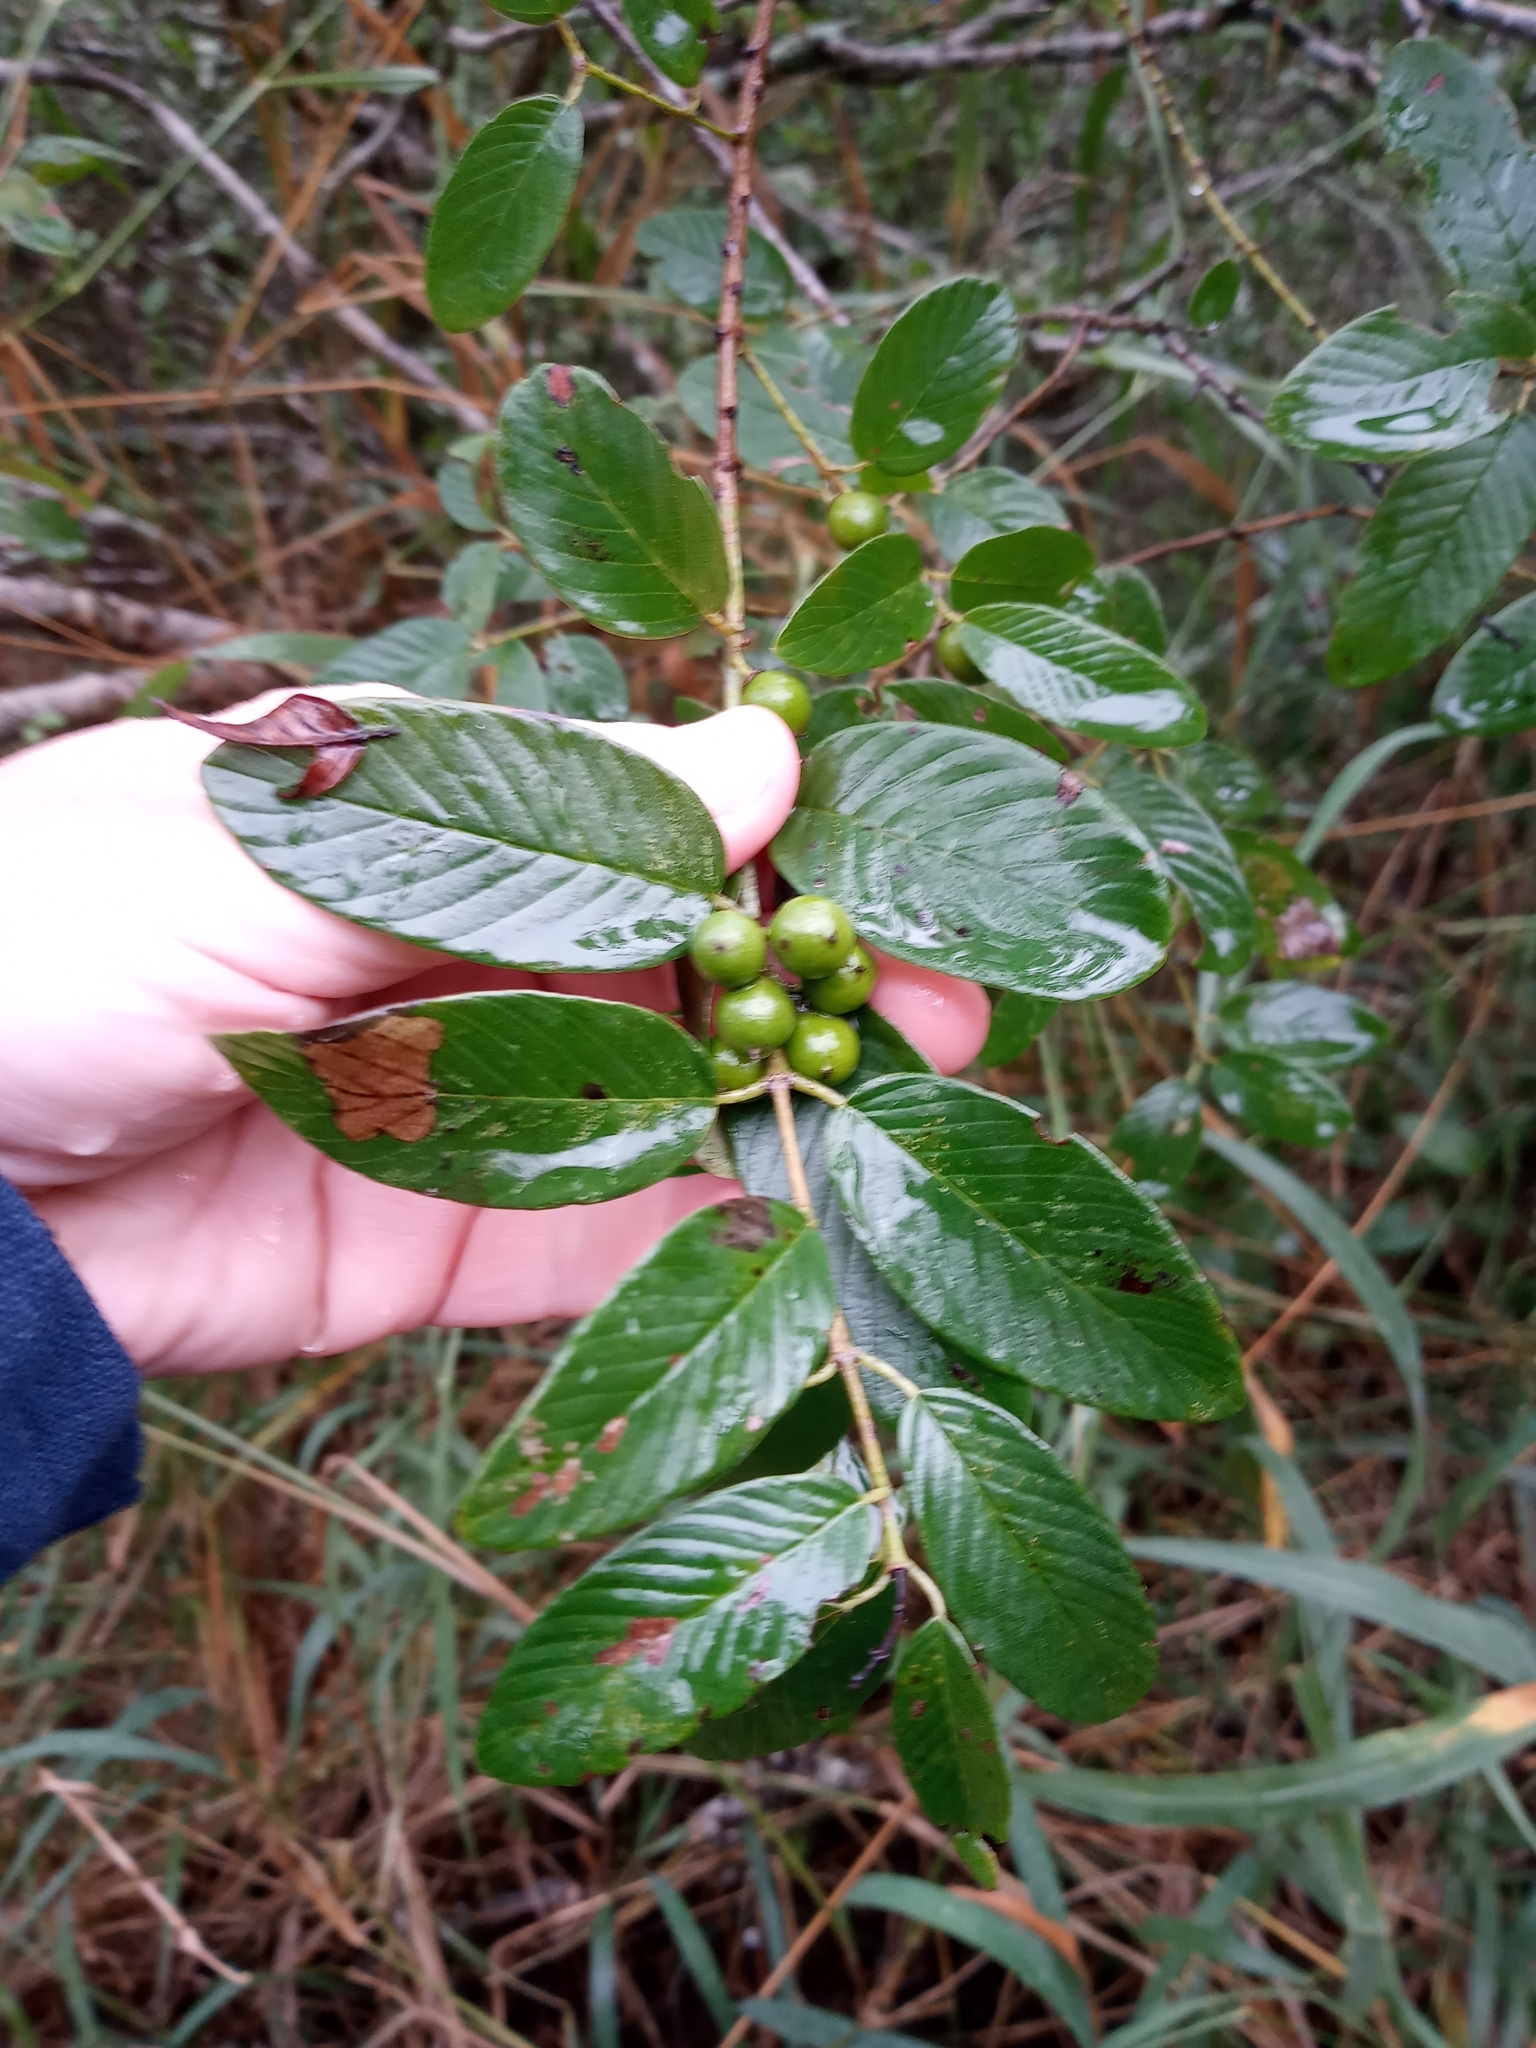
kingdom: Plantae
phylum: Tracheophyta
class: Magnoliopsida
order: Rosales
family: Rhamnaceae
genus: Karwinskia
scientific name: Karwinskia humboldtiana
